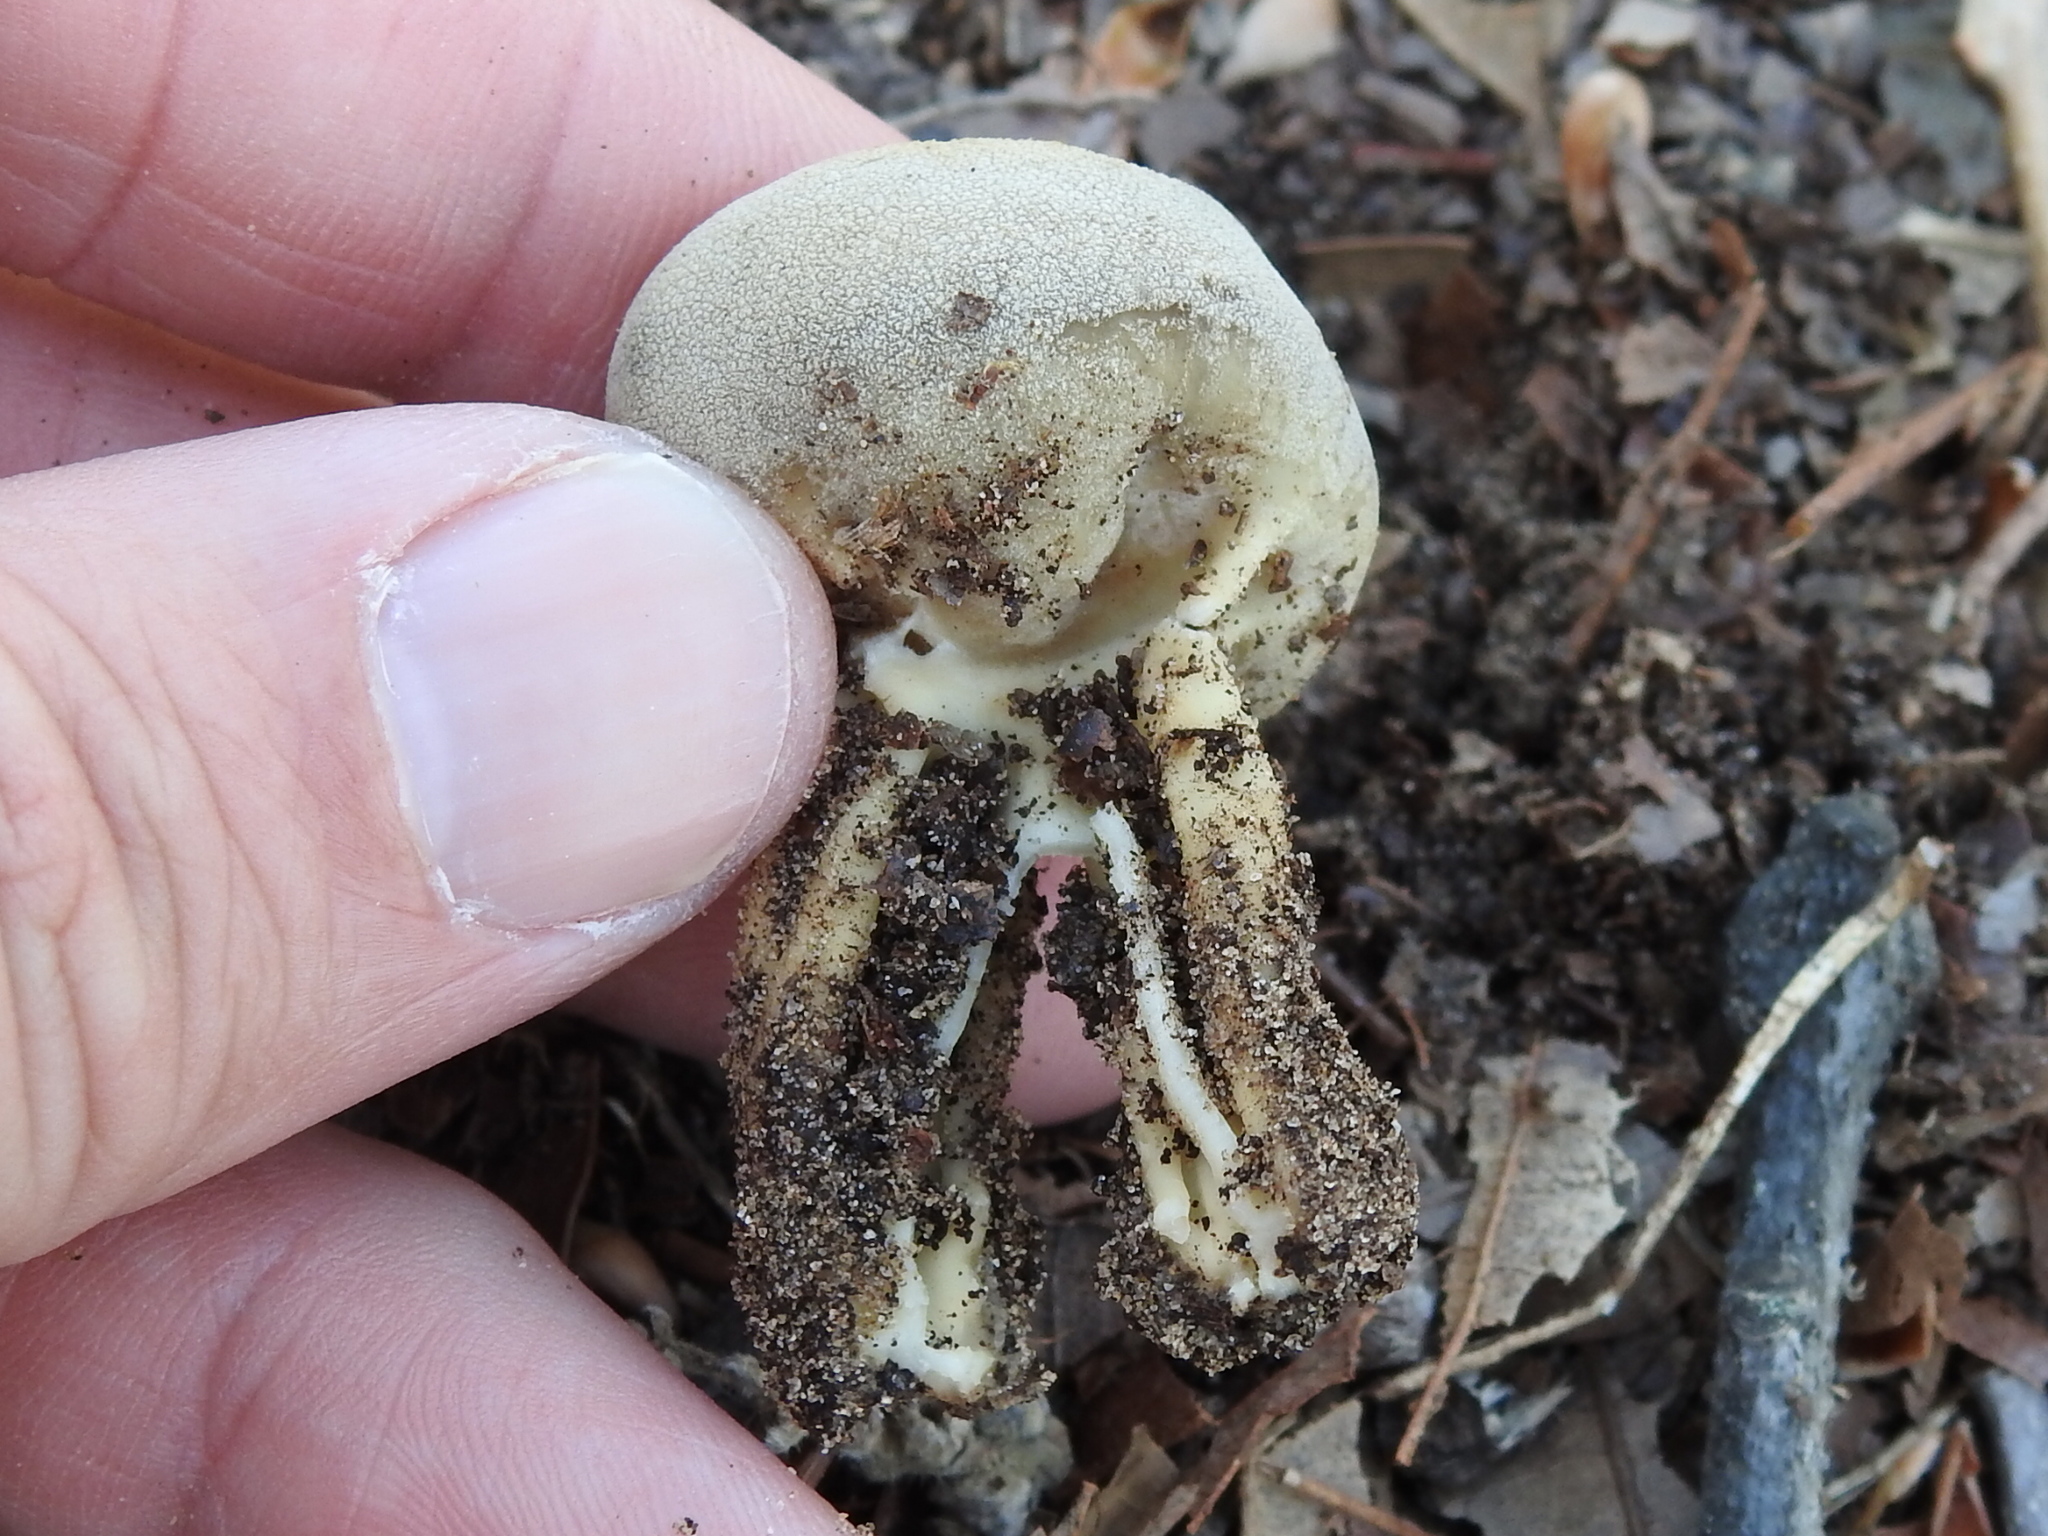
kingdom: Fungi
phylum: Ascomycota
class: Pezizomycetes
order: Pezizales
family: Helvellaceae
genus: Helvella
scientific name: Helvella acetabulum
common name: Vinegar cup
